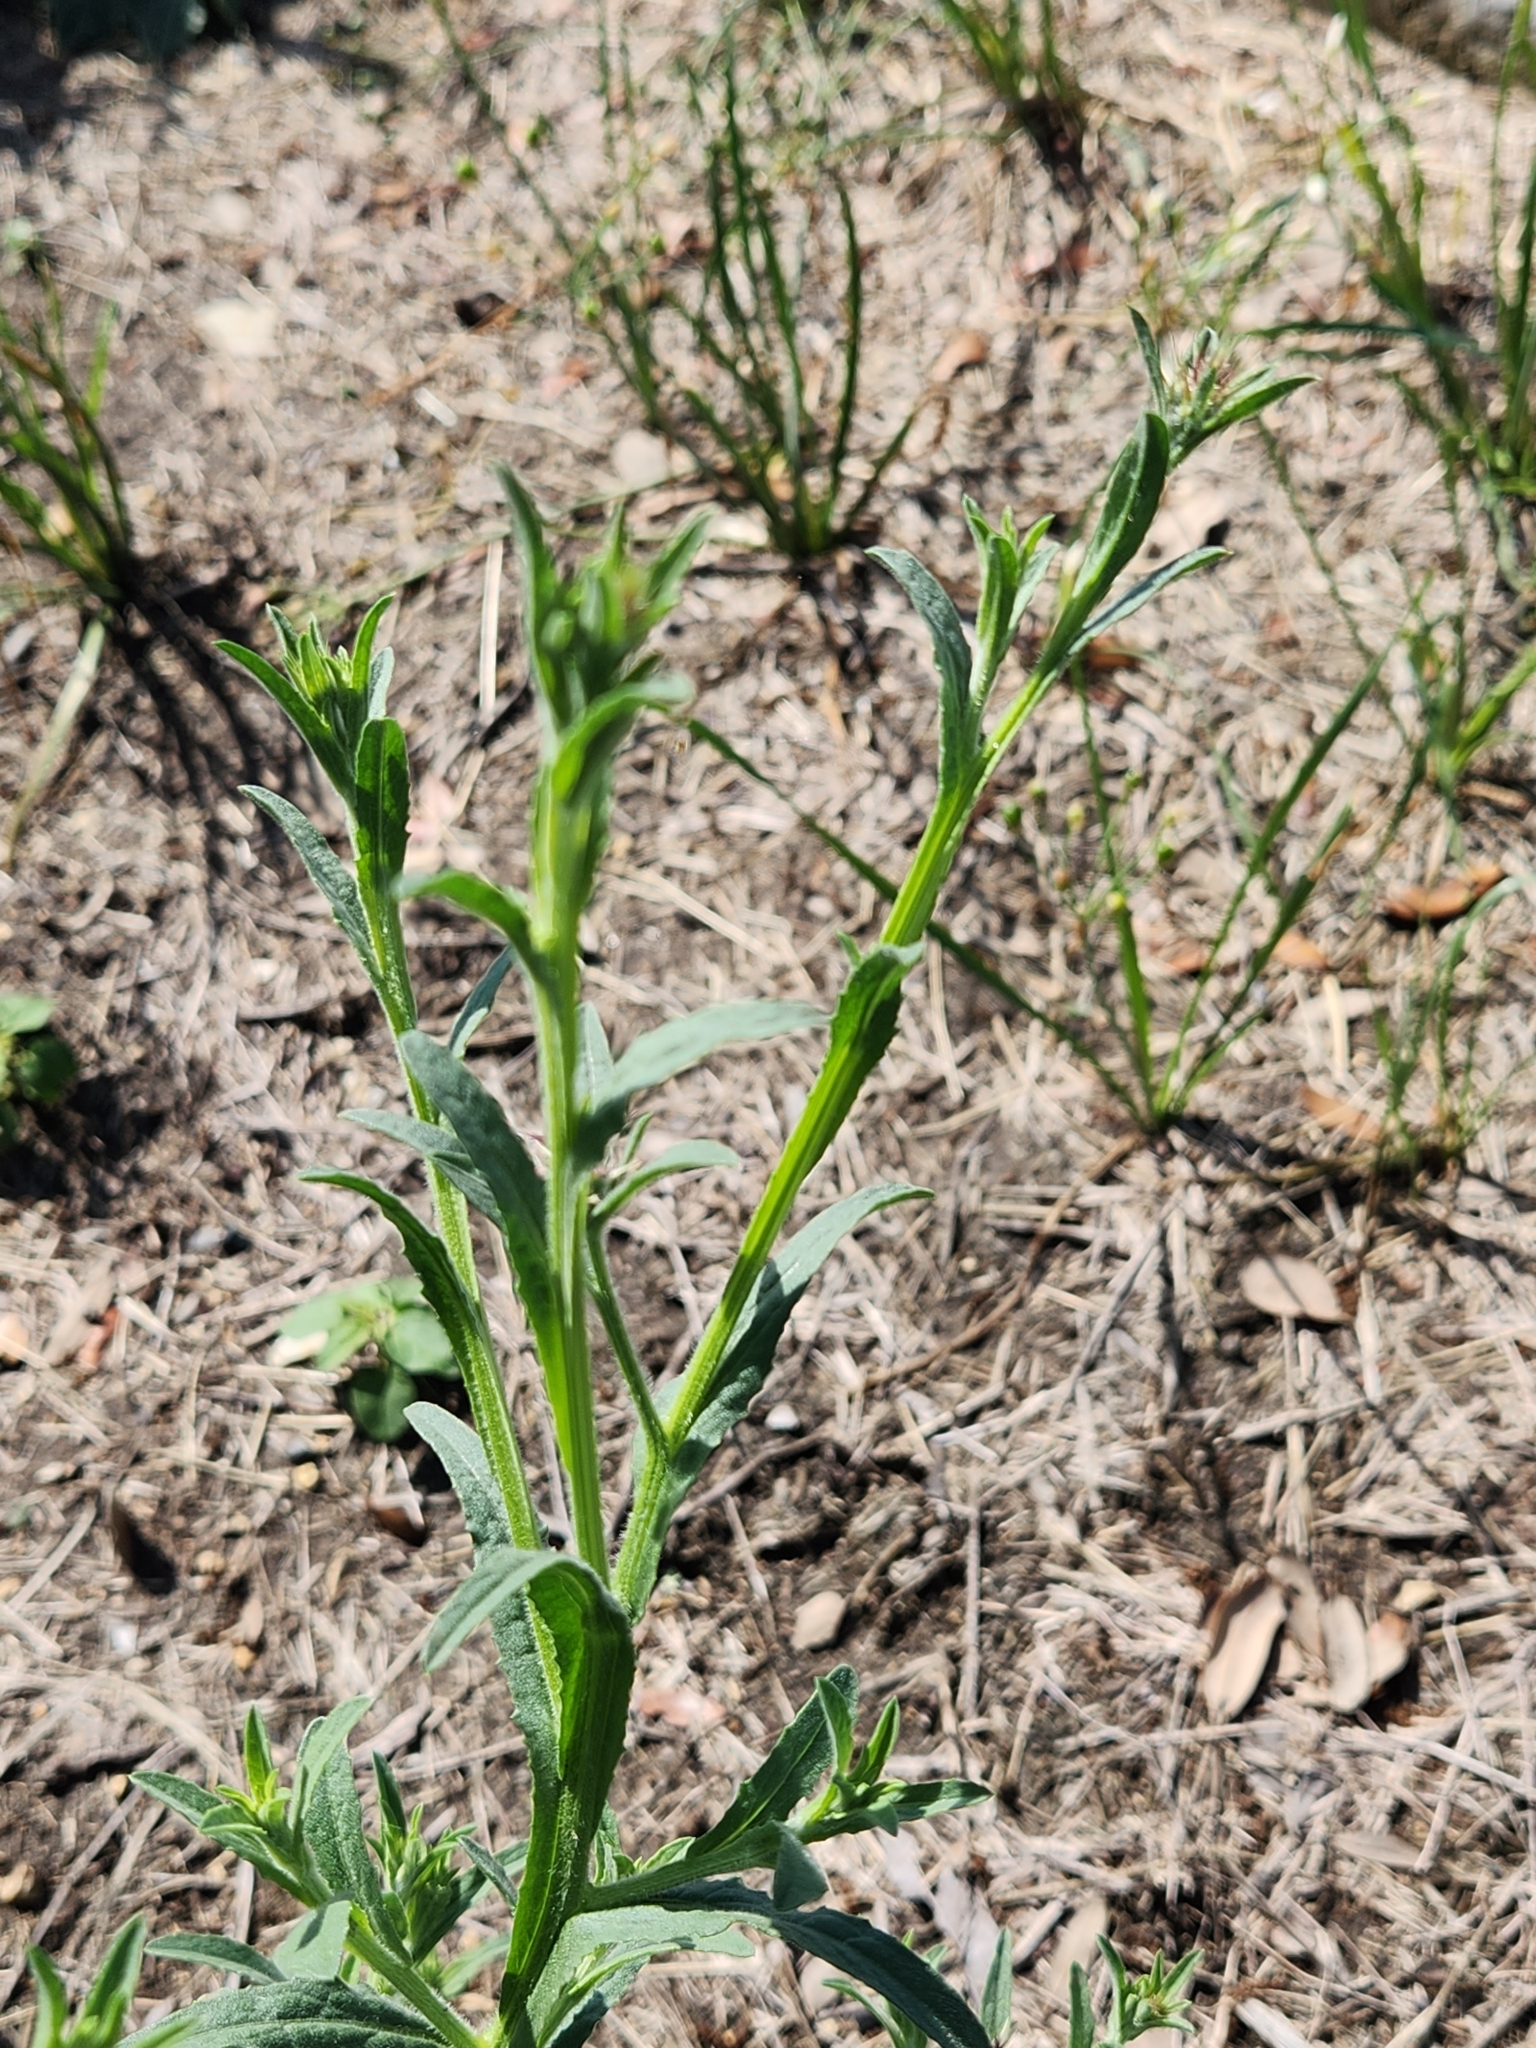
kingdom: Plantae
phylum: Tracheophyta
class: Magnoliopsida
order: Asterales
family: Asteraceae
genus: Centaurea
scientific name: Centaurea melitensis
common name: Maltese star-thistle
